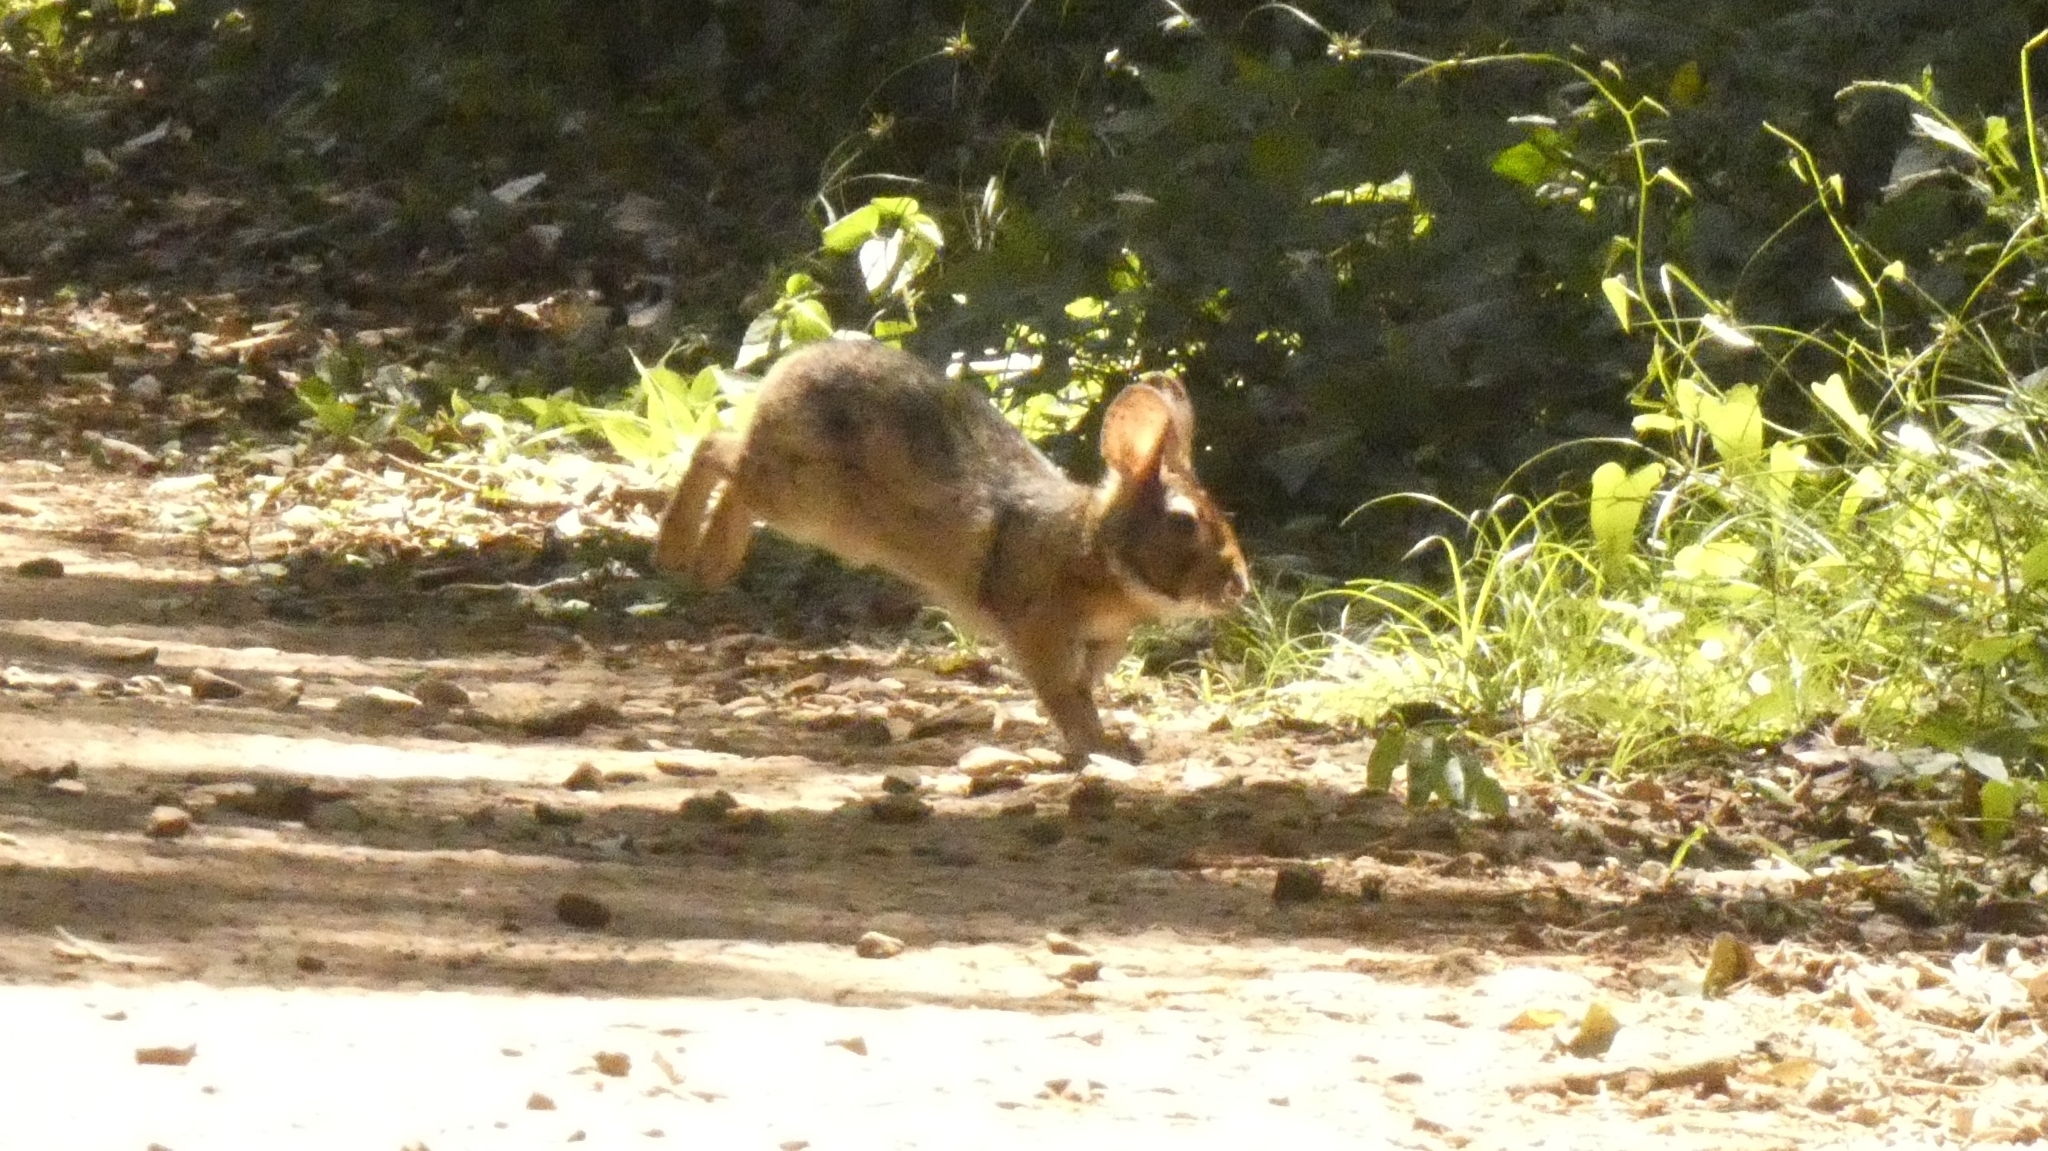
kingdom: Animalia
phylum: Chordata
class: Mammalia
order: Lagomorpha
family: Leporidae
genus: Sylvilagus
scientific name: Sylvilagus brasiliensis
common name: Tapeti
